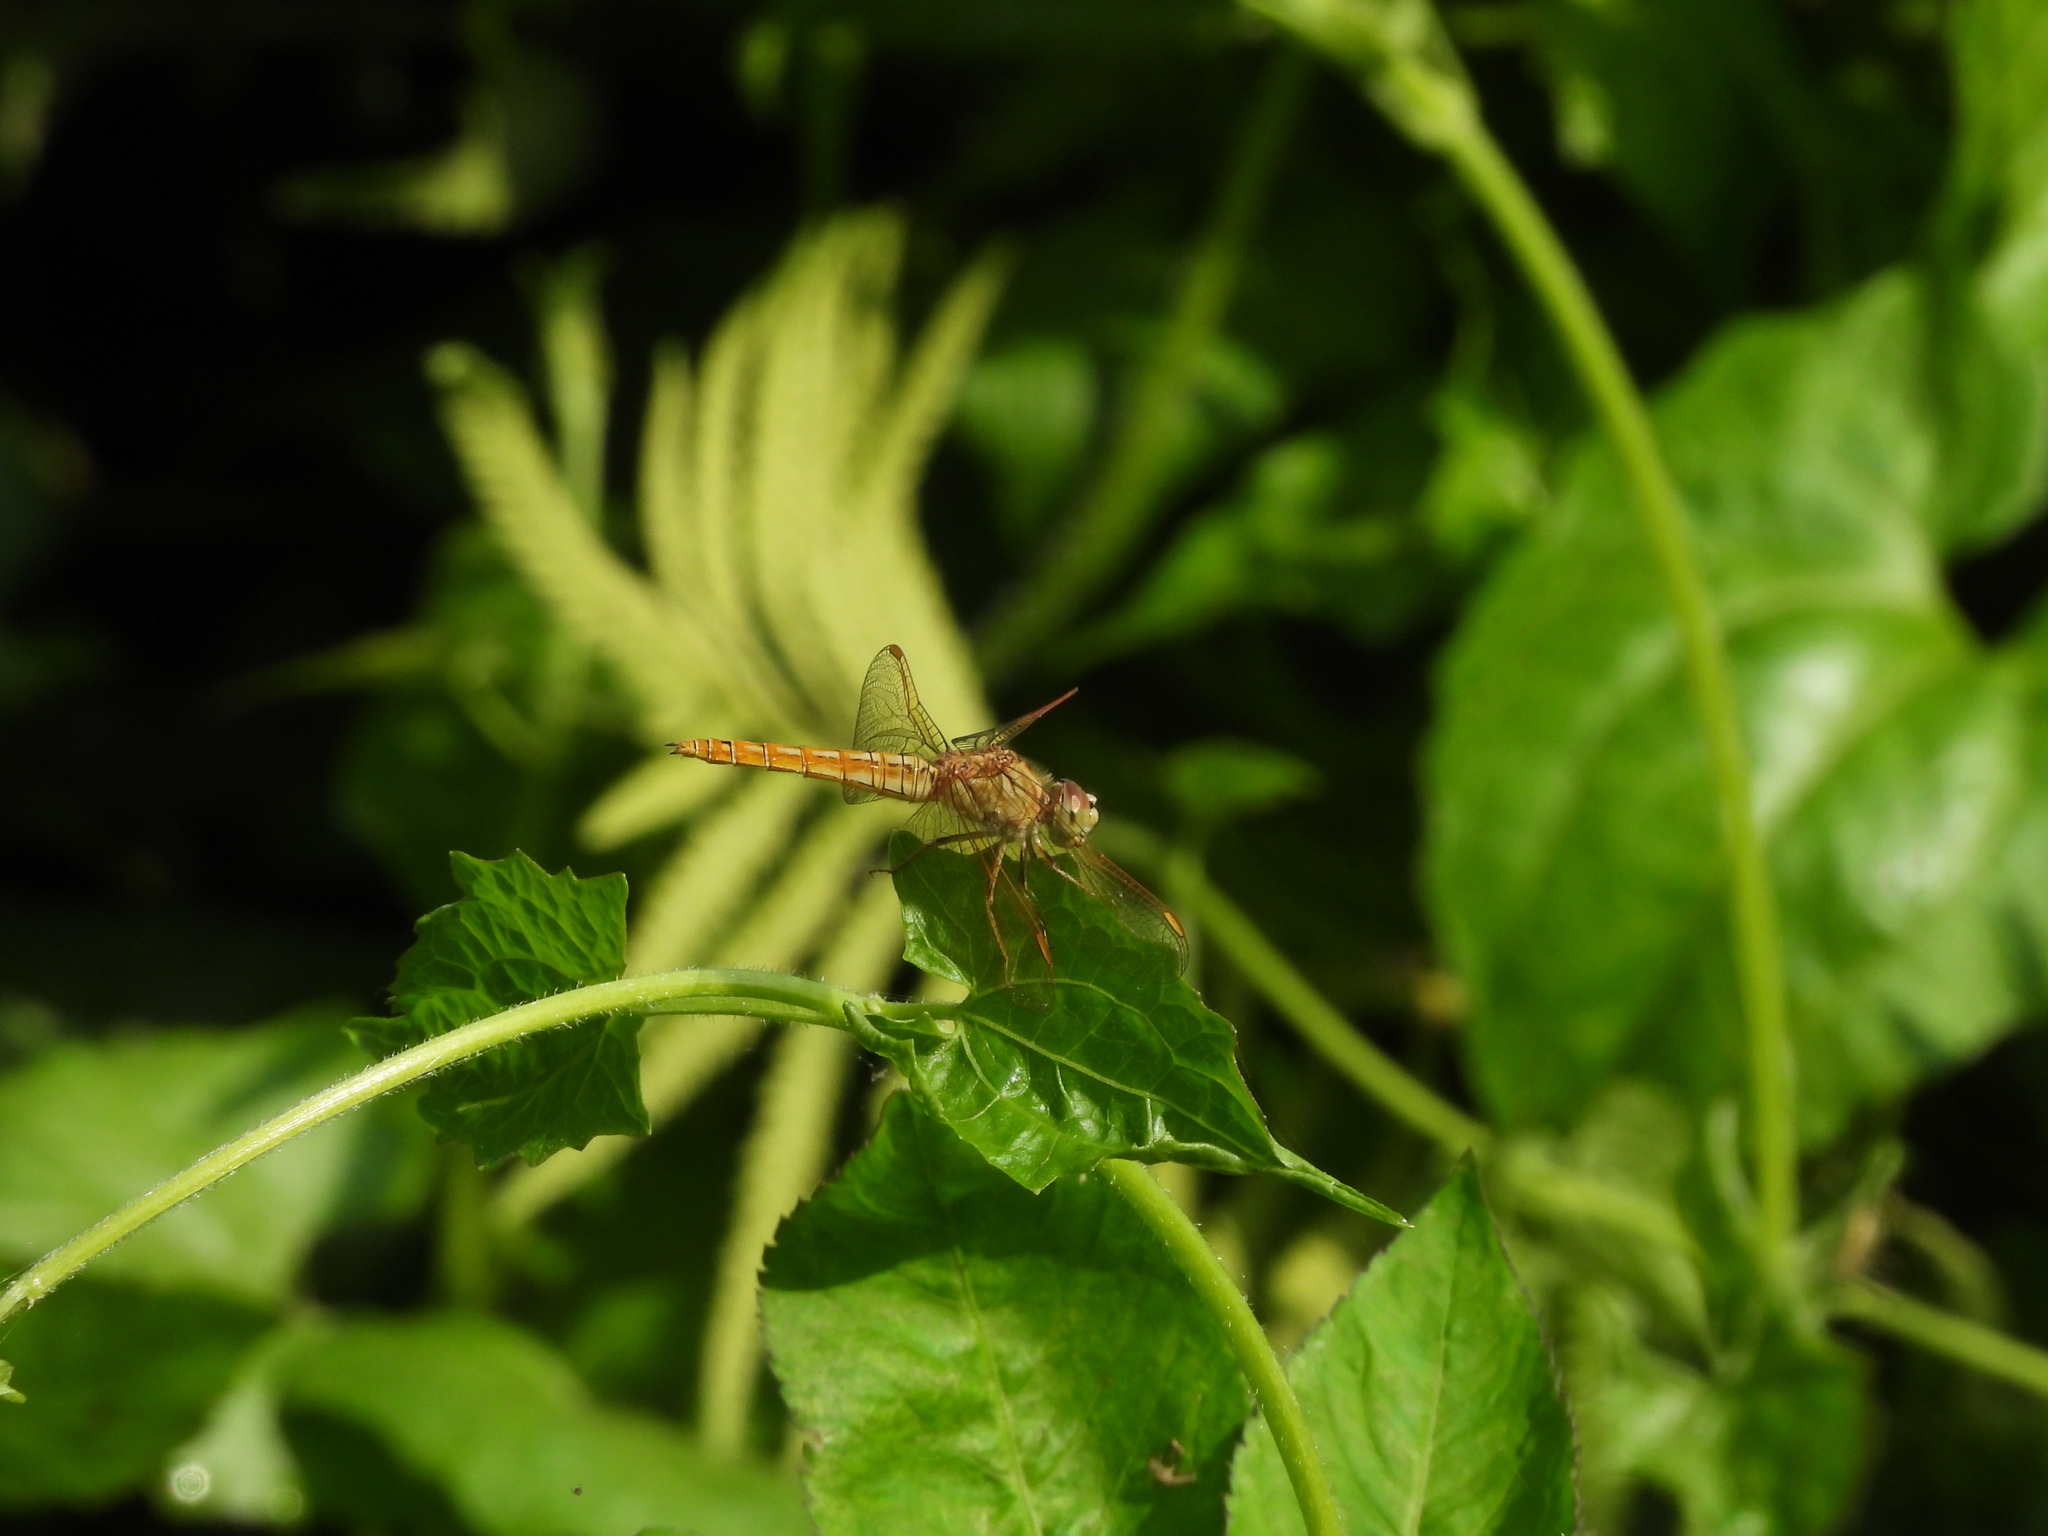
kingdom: Animalia
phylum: Arthropoda
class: Insecta
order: Odonata
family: Libellulidae
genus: Brachythemis
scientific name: Brachythemis contaminata
